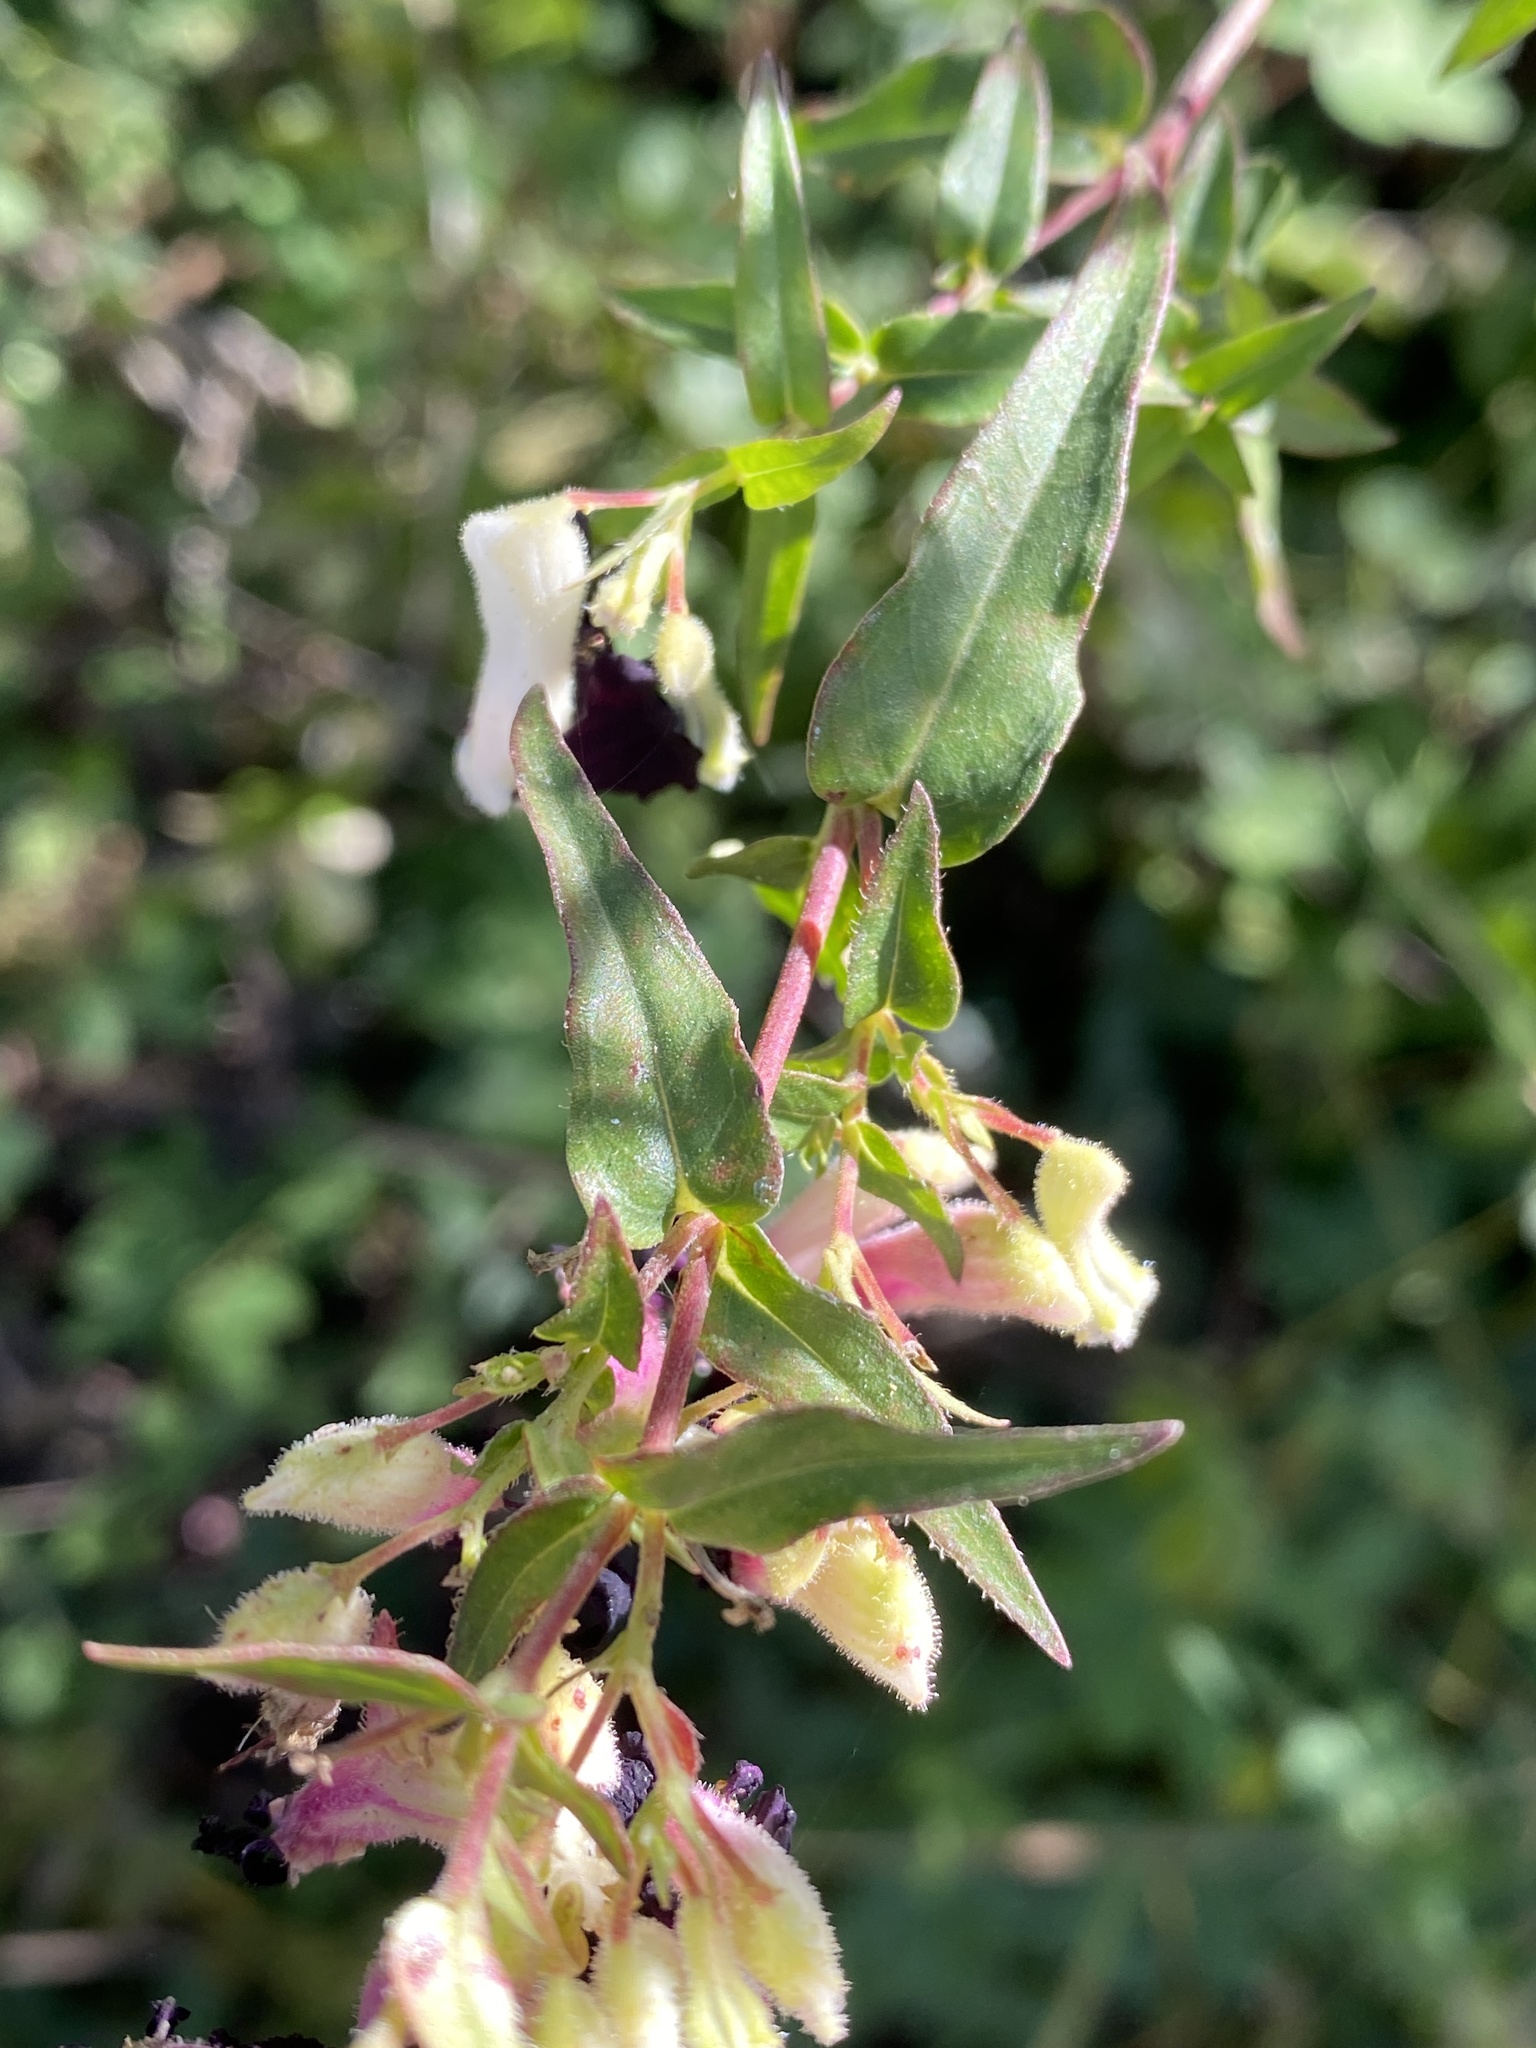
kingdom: Plantae
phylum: Tracheophyta
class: Magnoliopsida
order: Myrtales
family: Lythraceae
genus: Cuphea
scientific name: Cuphea avigera
